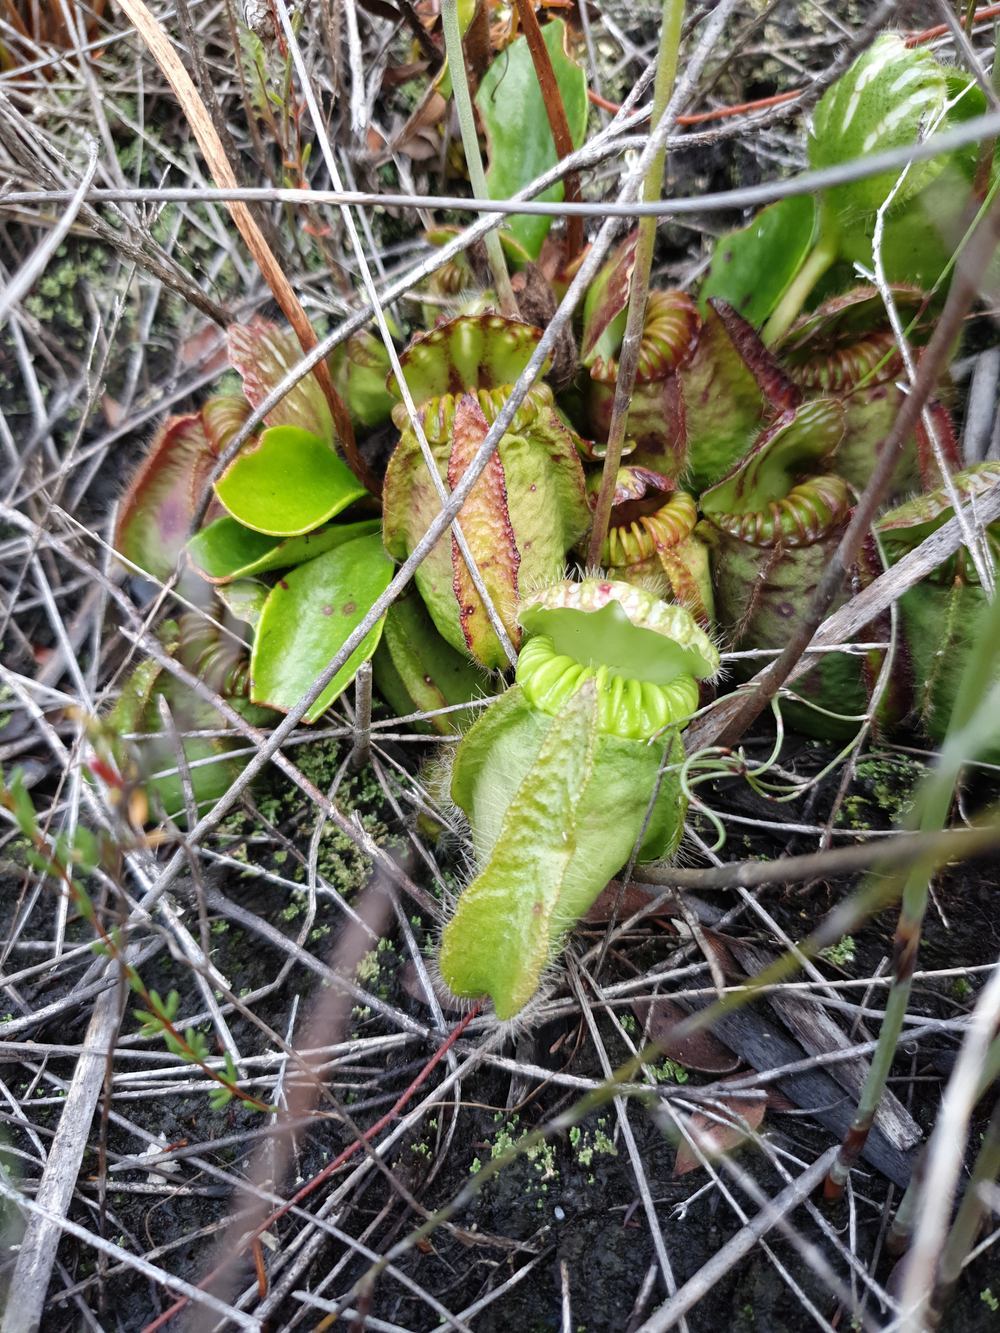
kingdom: Plantae
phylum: Tracheophyta
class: Magnoliopsida
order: Oxalidales
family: Cephalotaceae
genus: Cephalotus
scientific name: Cephalotus follicularis
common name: Australian pitcher plant
